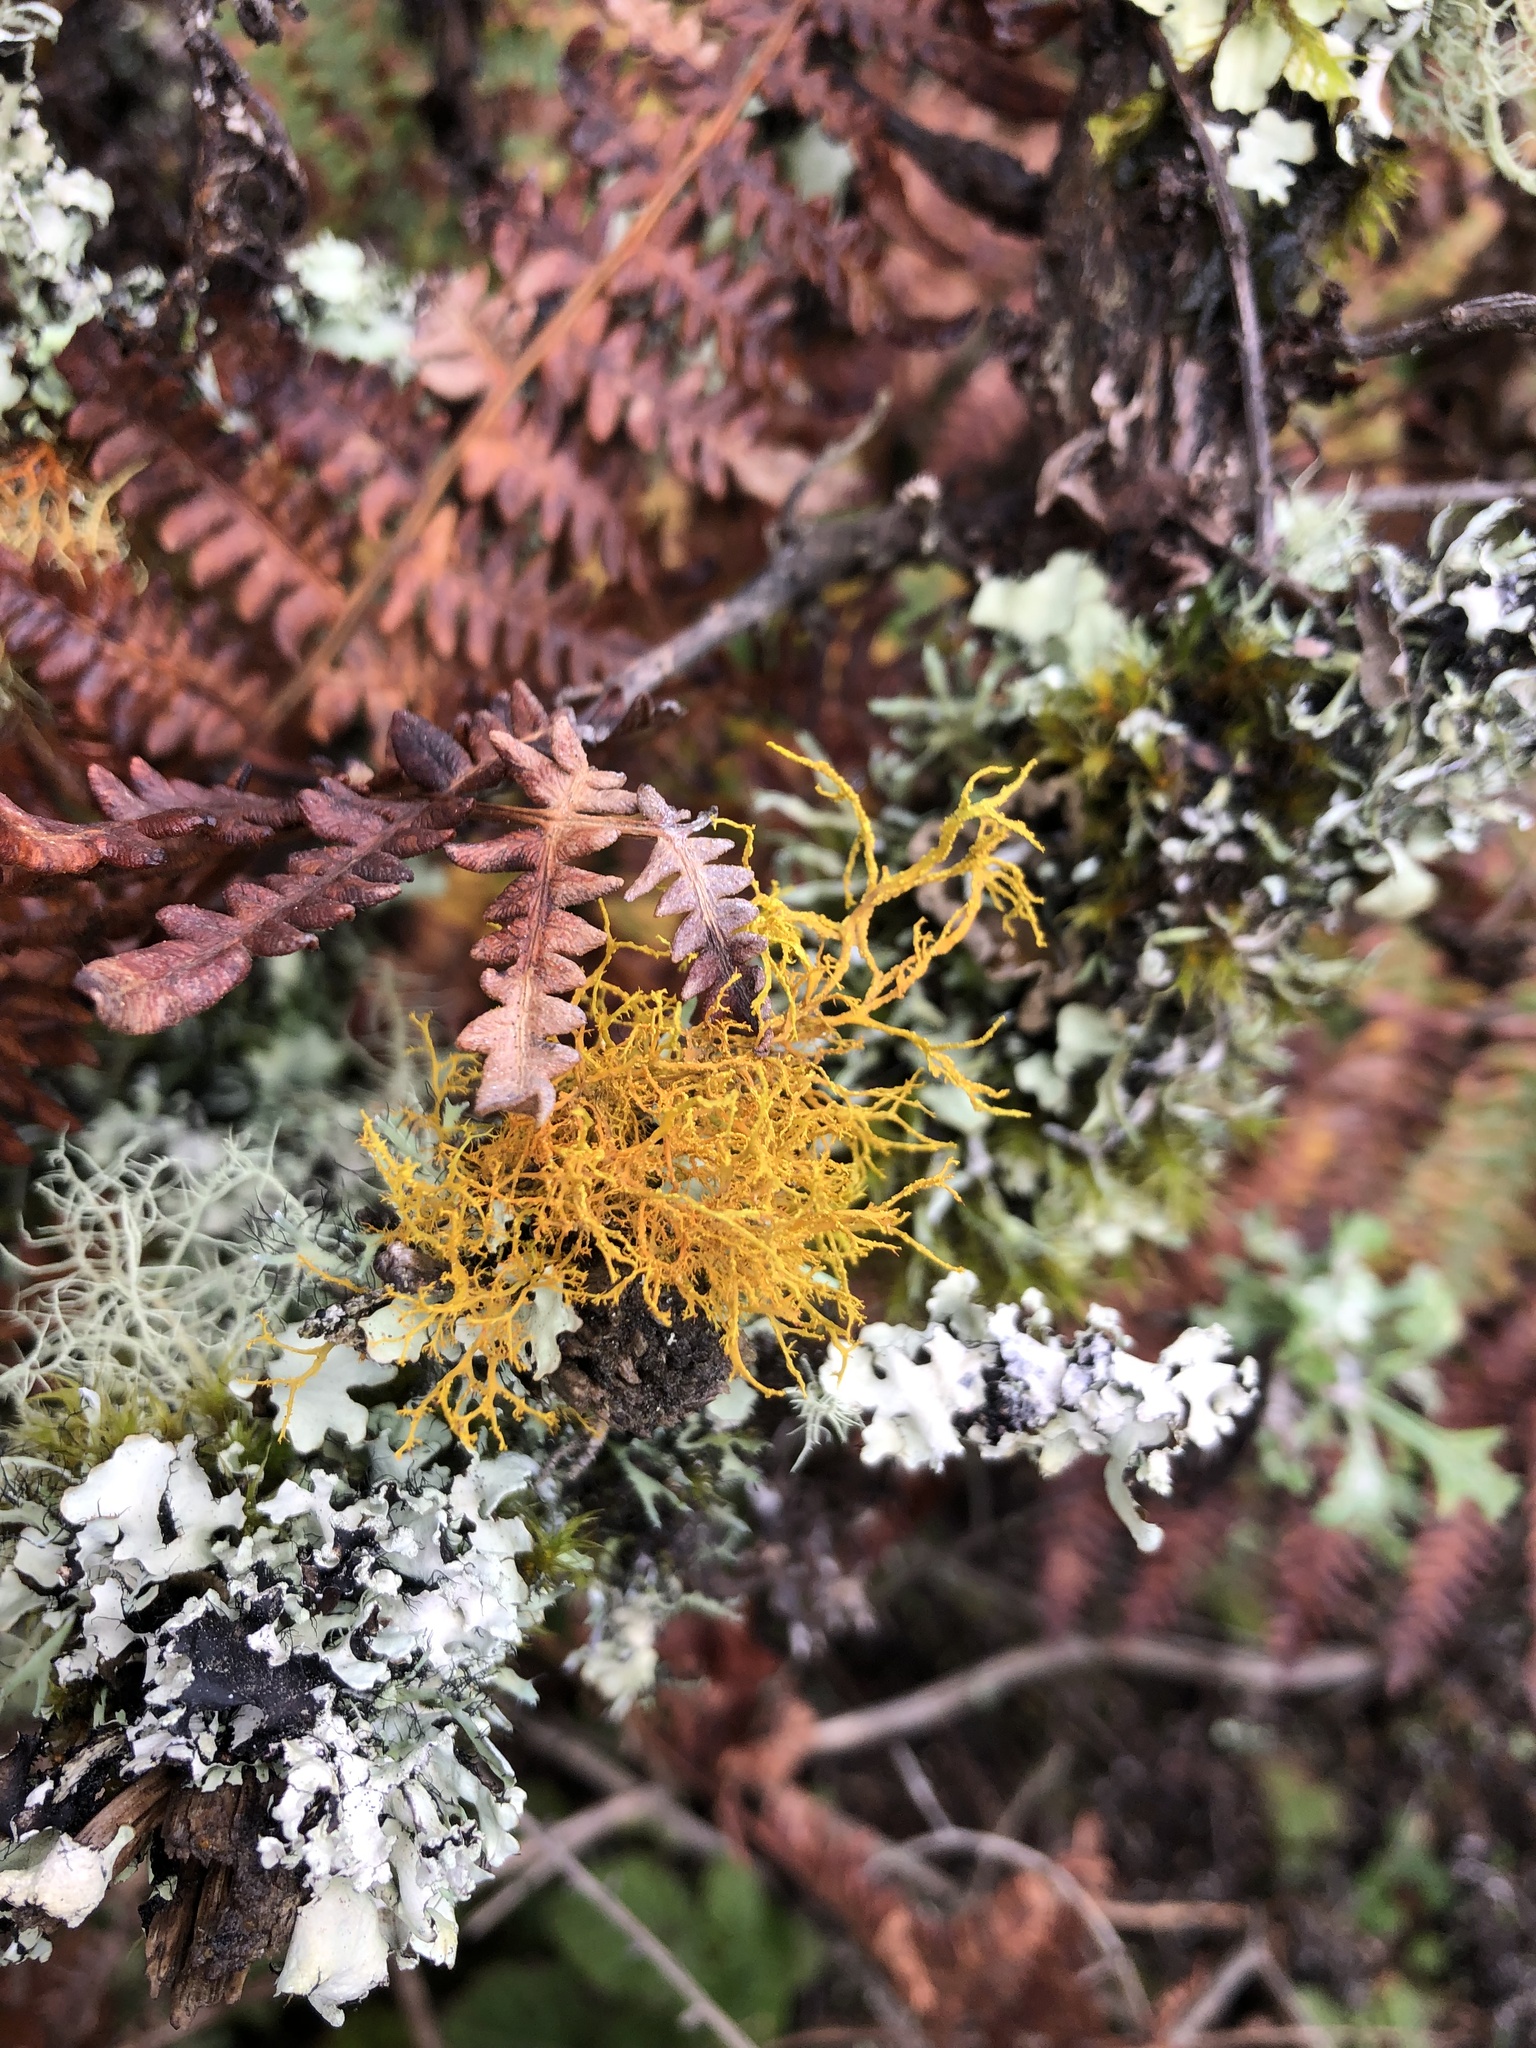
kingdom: Fungi
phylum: Ascomycota
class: Lecanoromycetes
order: Teloschistales
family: Teloschistaceae
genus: Teloschistes
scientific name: Teloschistes flavicans
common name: Golden hair-lichen
